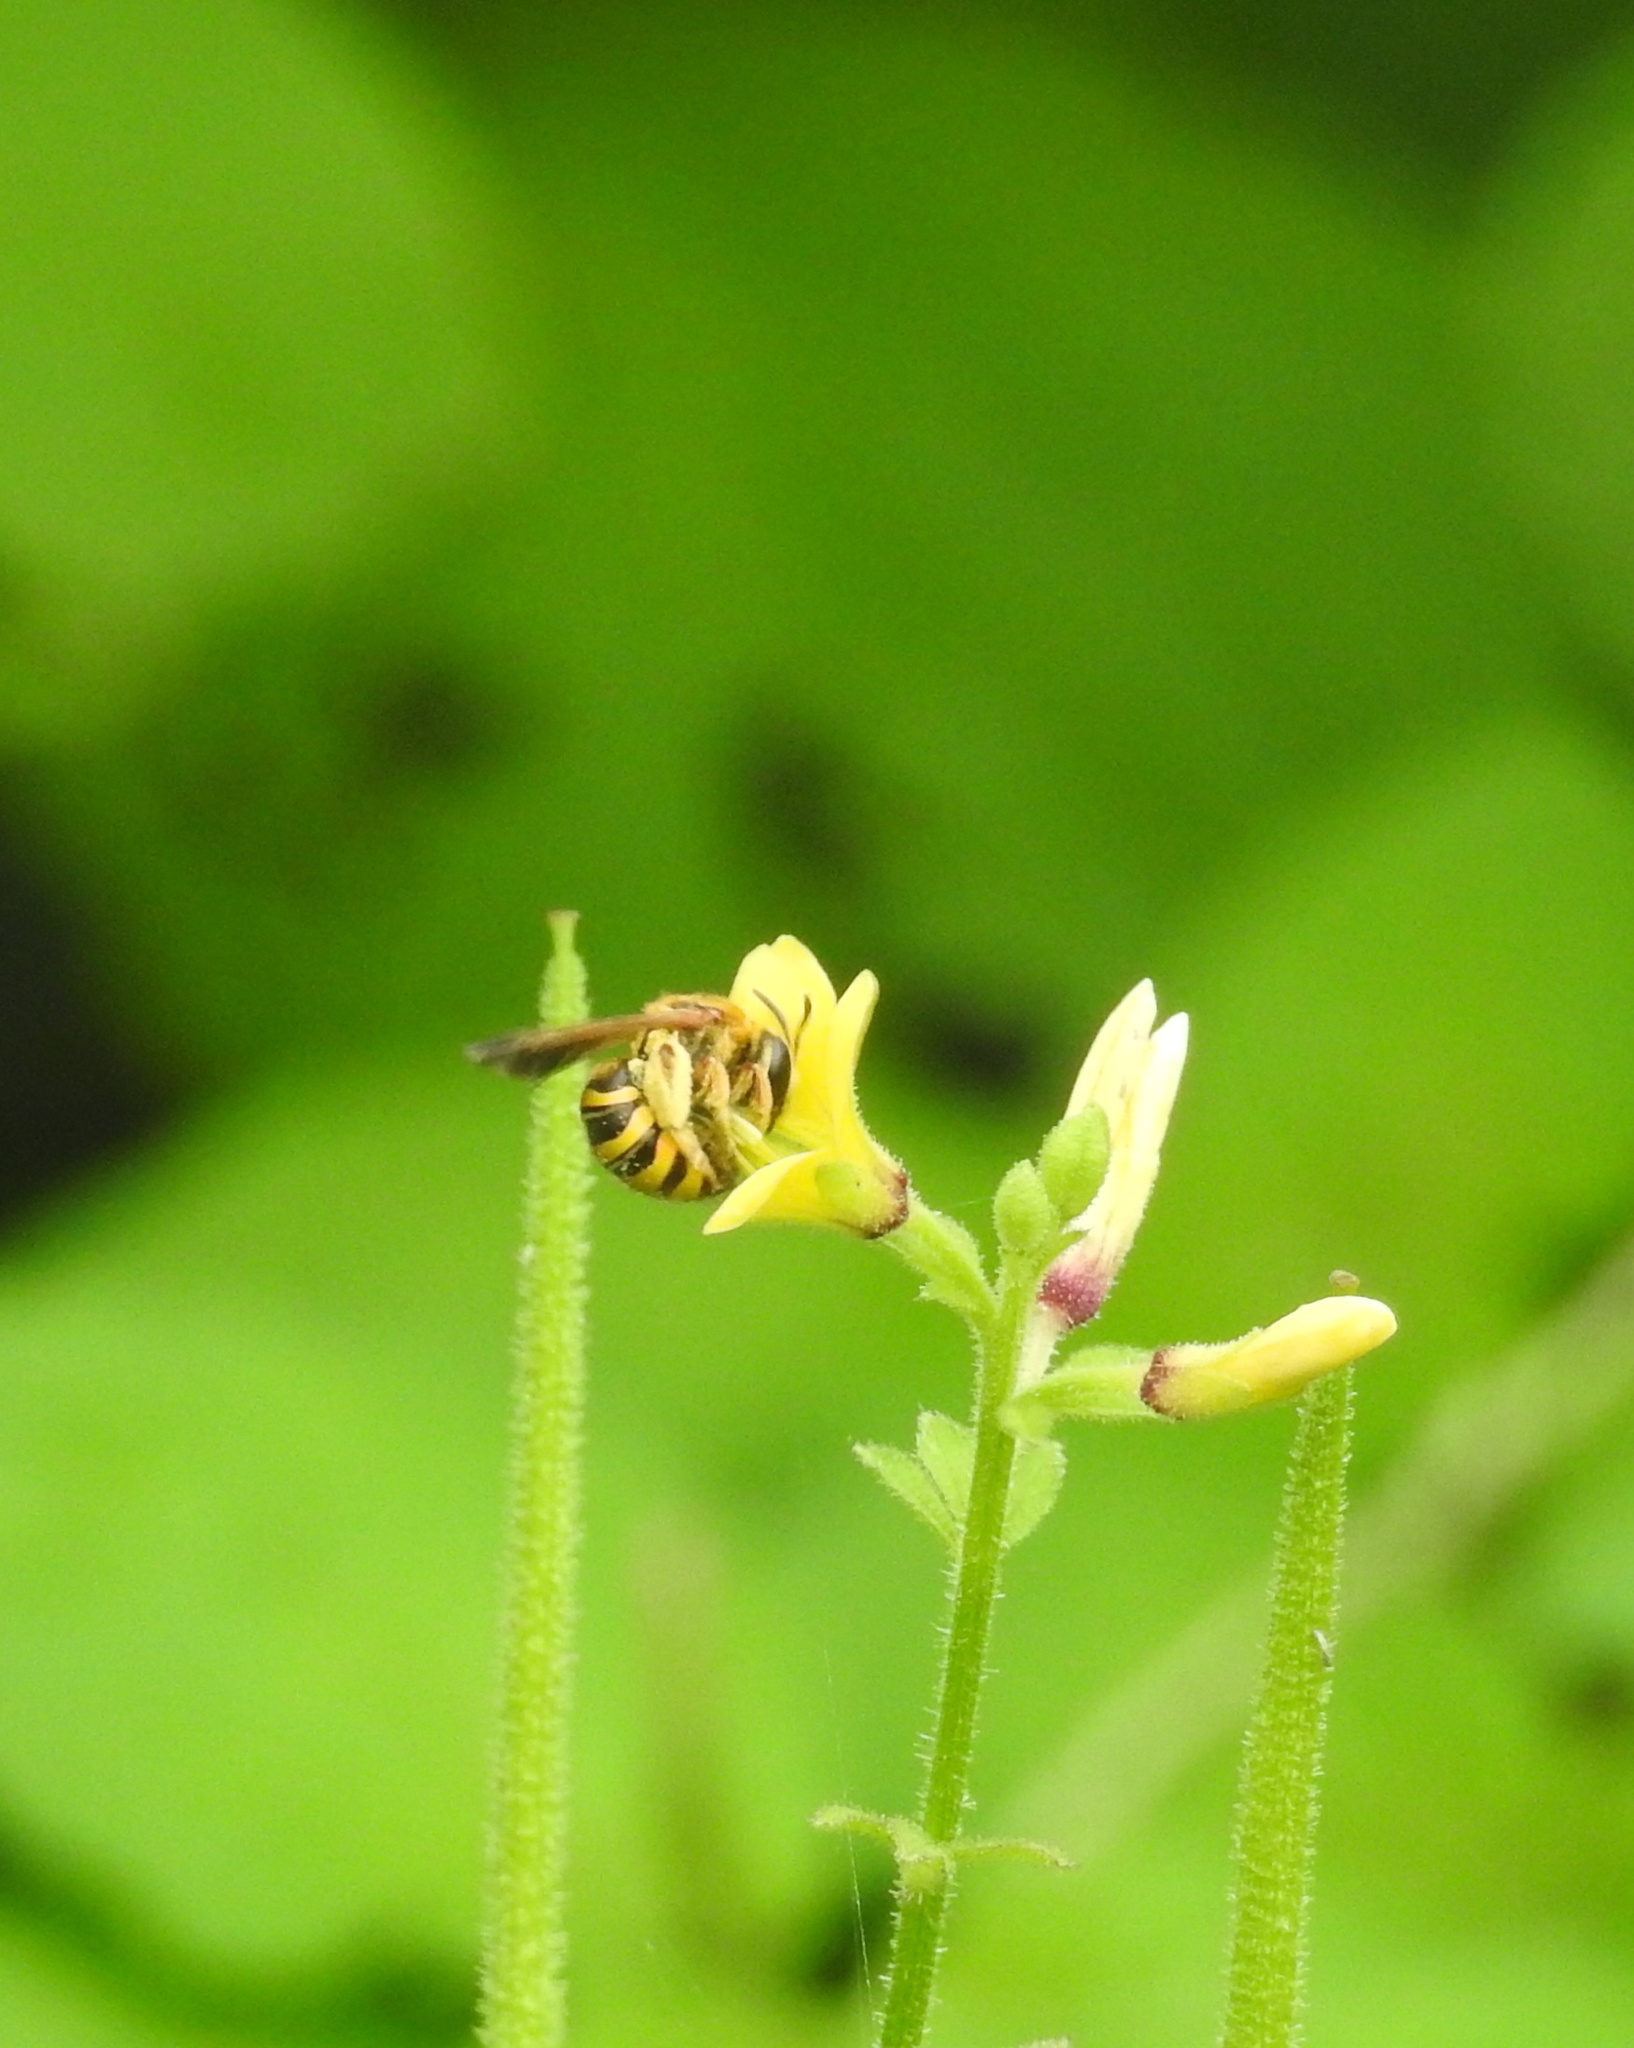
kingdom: Animalia
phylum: Arthropoda
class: Insecta
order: Hymenoptera
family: Halictidae
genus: Nomia
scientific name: Nomia crassipes
